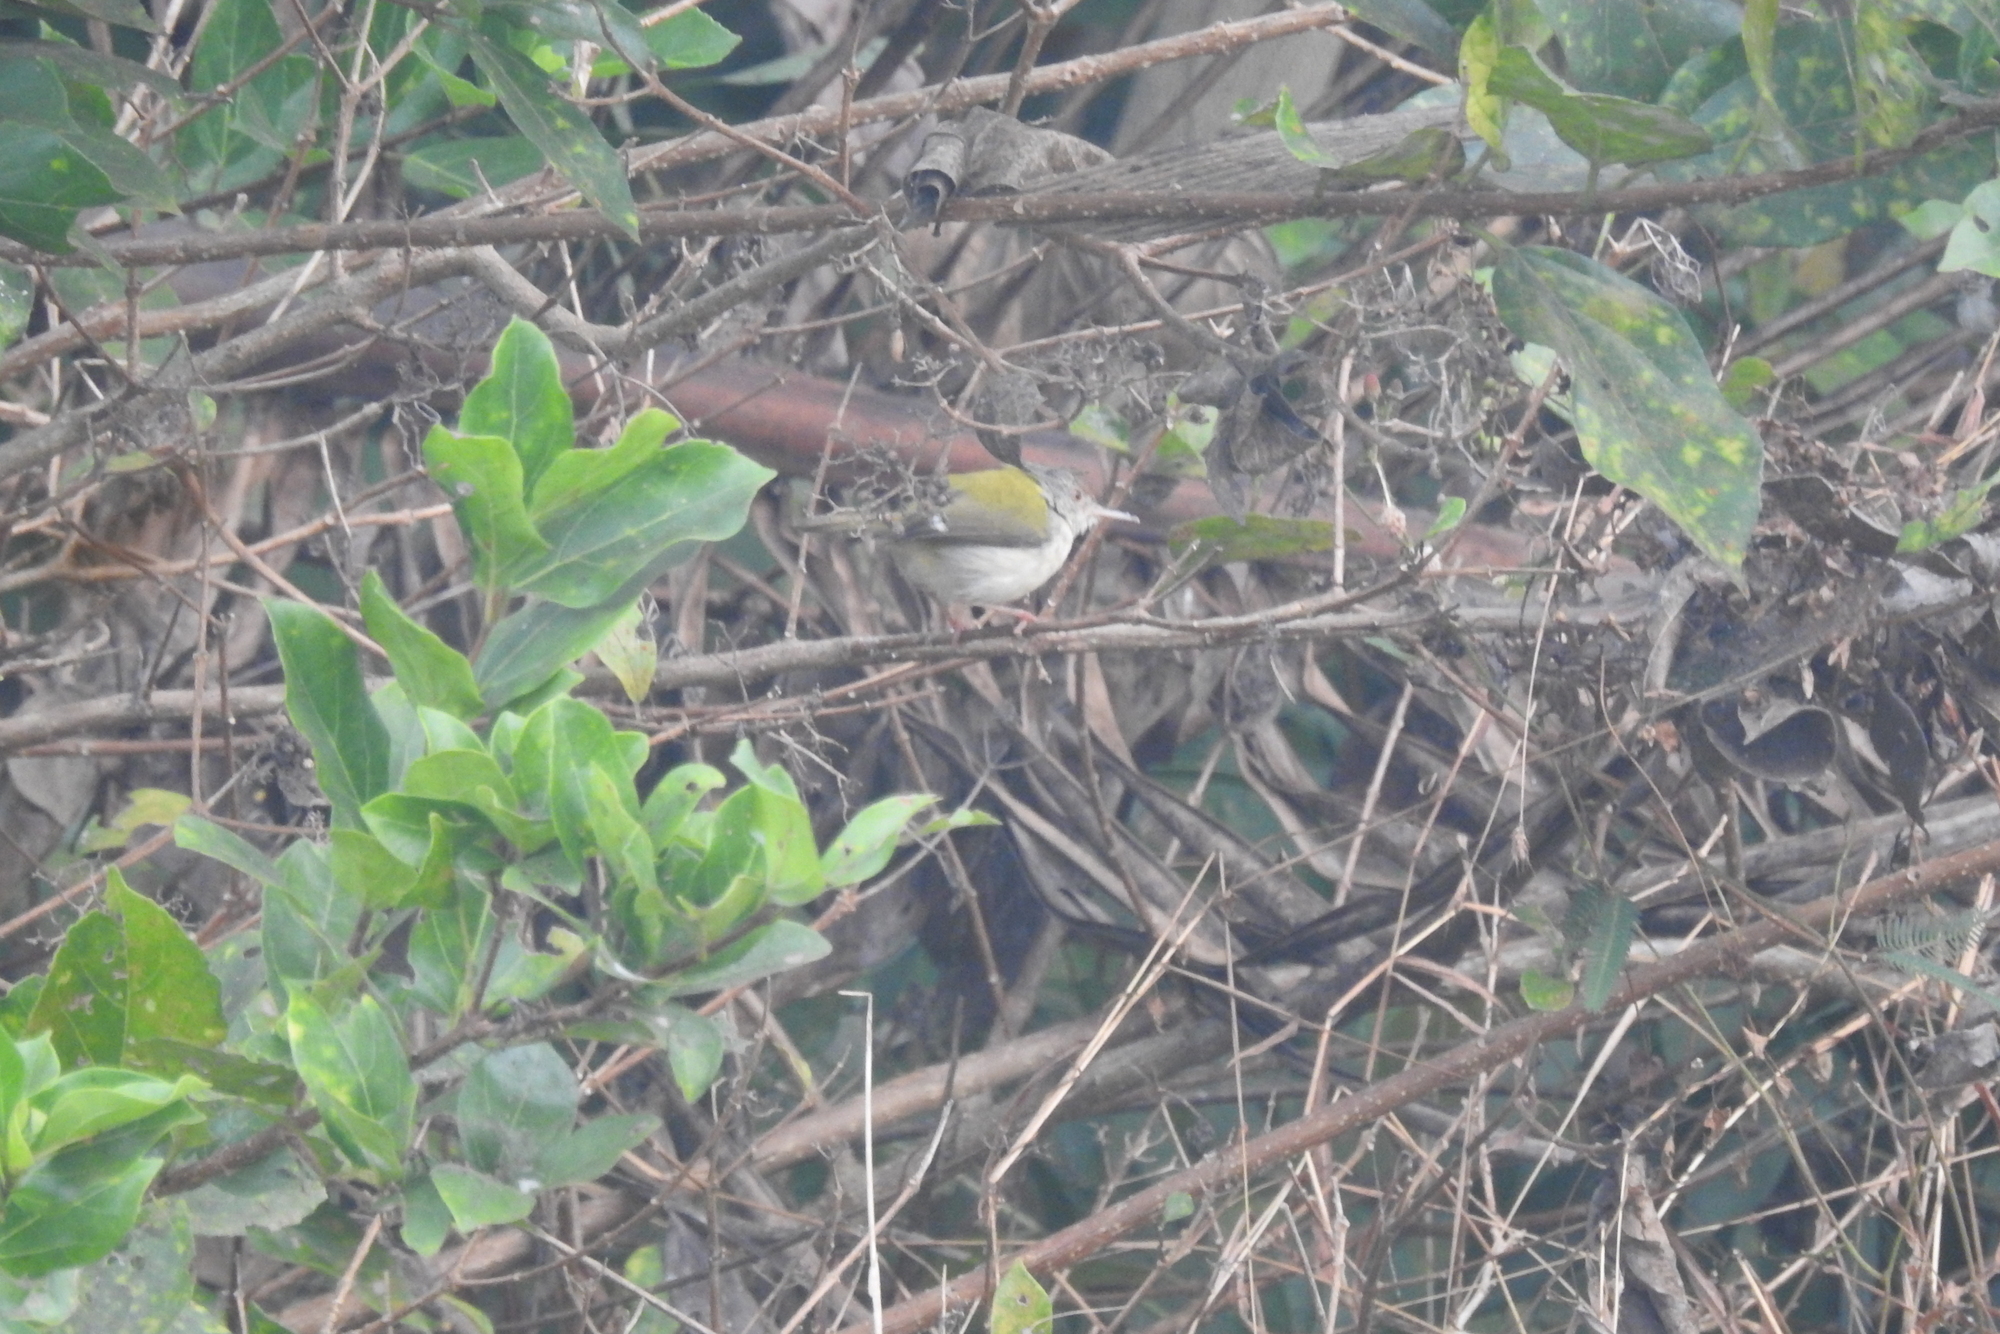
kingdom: Animalia
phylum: Chordata
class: Aves
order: Passeriformes
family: Cisticolidae
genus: Orthotomus
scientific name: Orthotomus sutorius
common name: Common tailorbird
